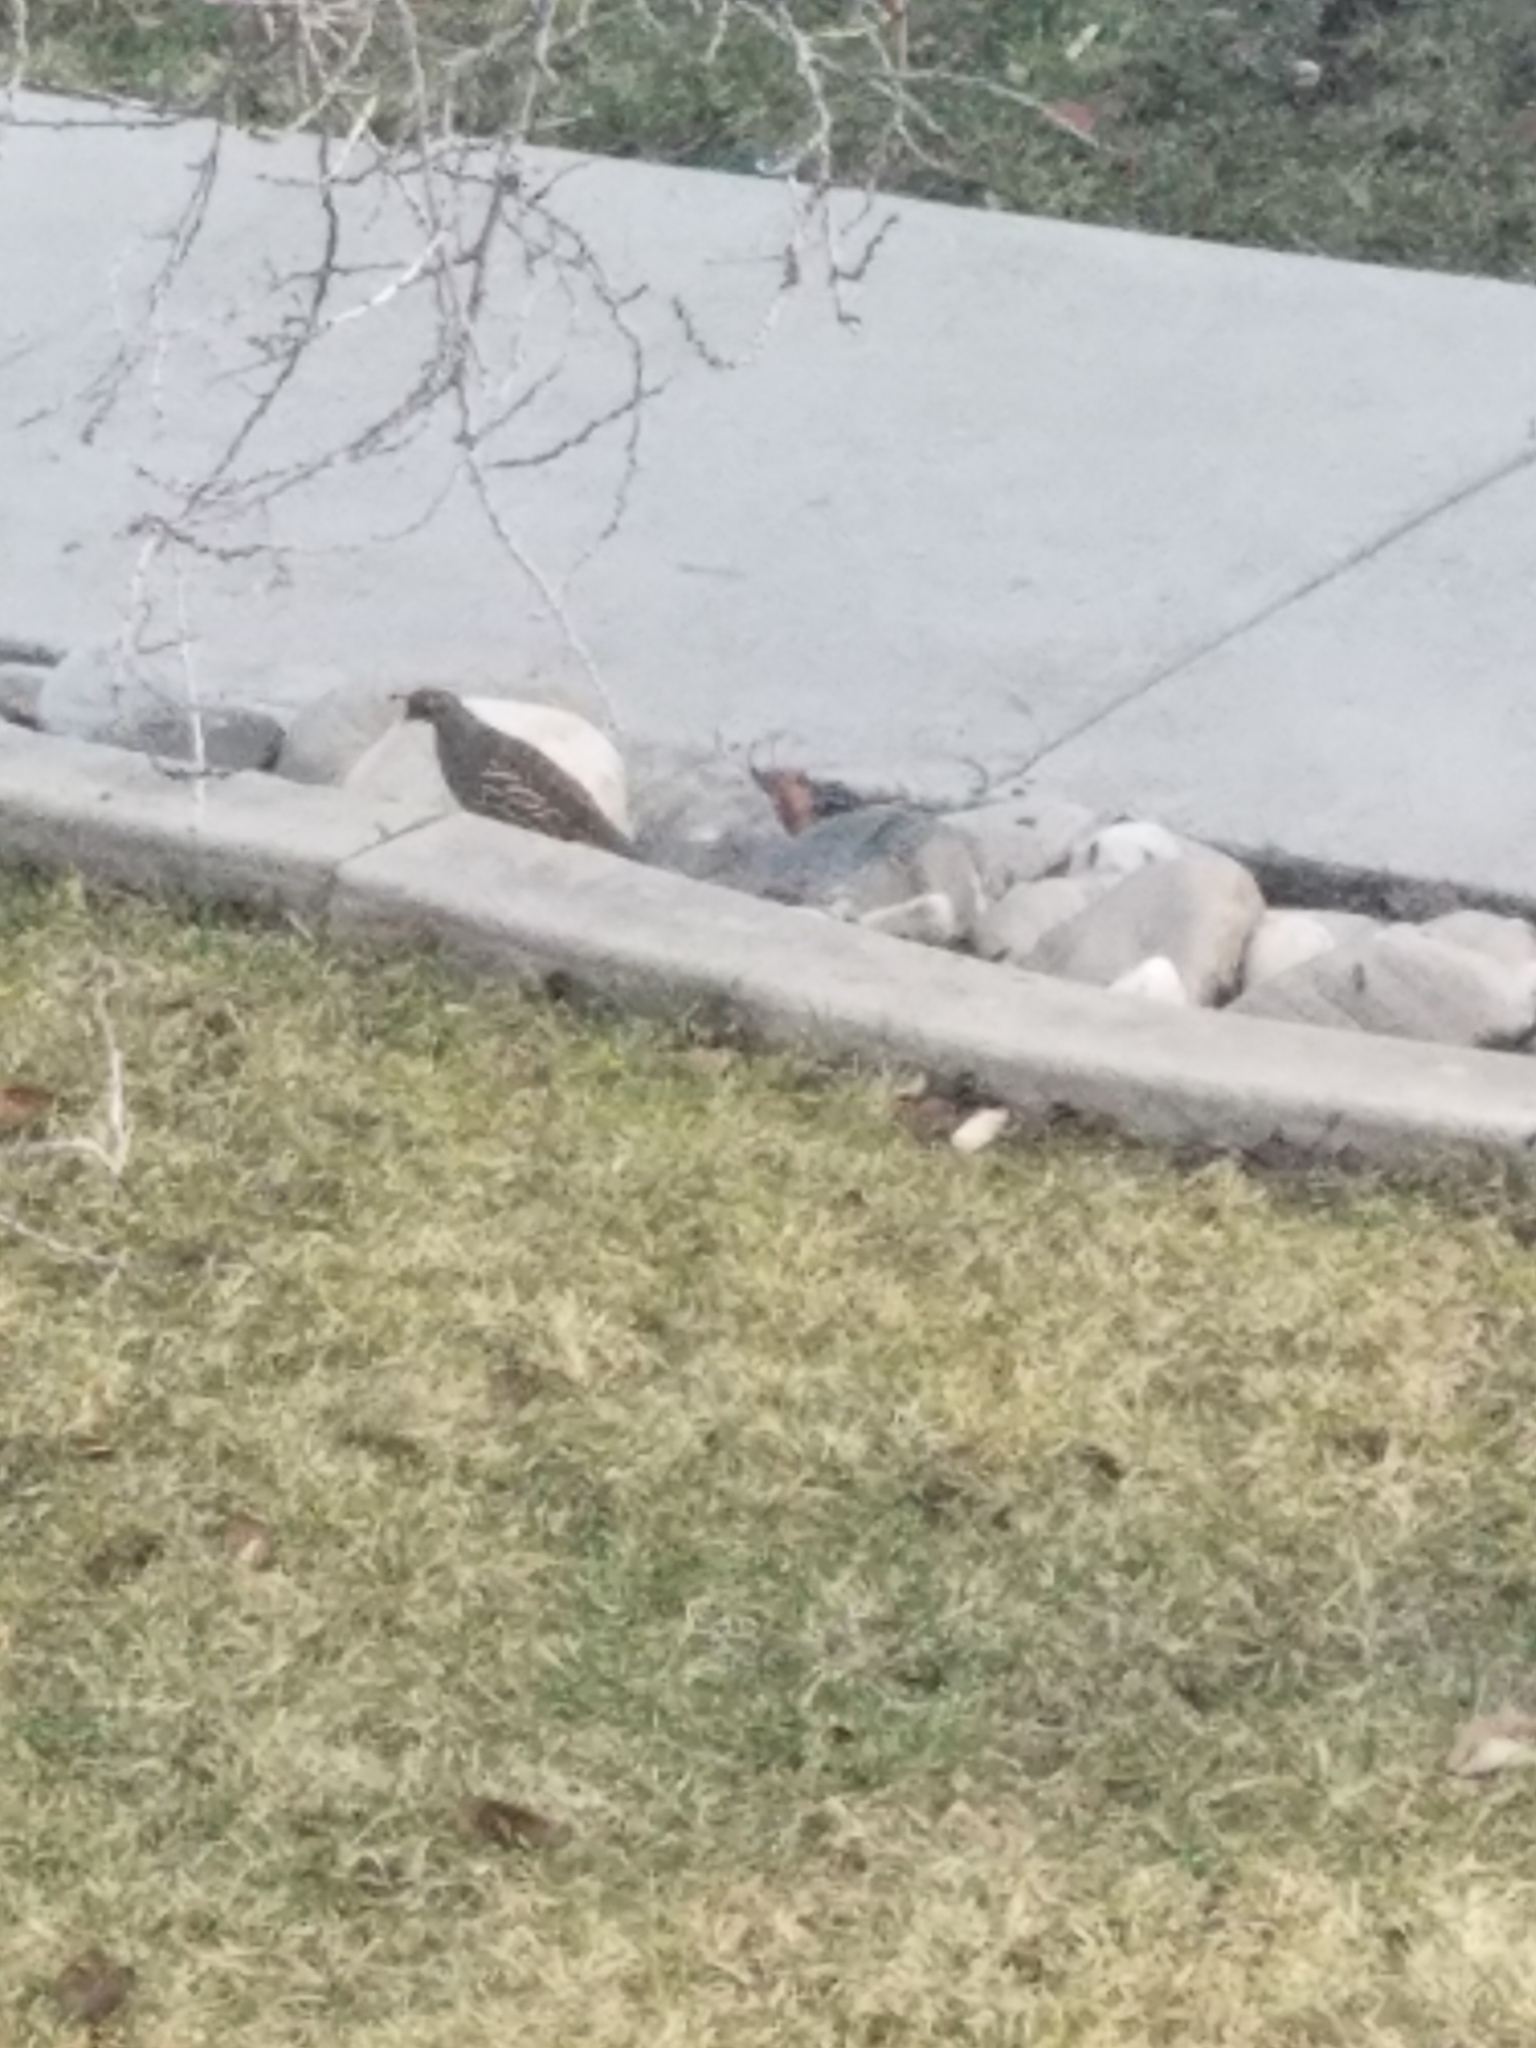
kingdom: Animalia
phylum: Chordata
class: Aves
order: Galliformes
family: Odontophoridae
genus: Callipepla
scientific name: Callipepla californica
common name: California quail
